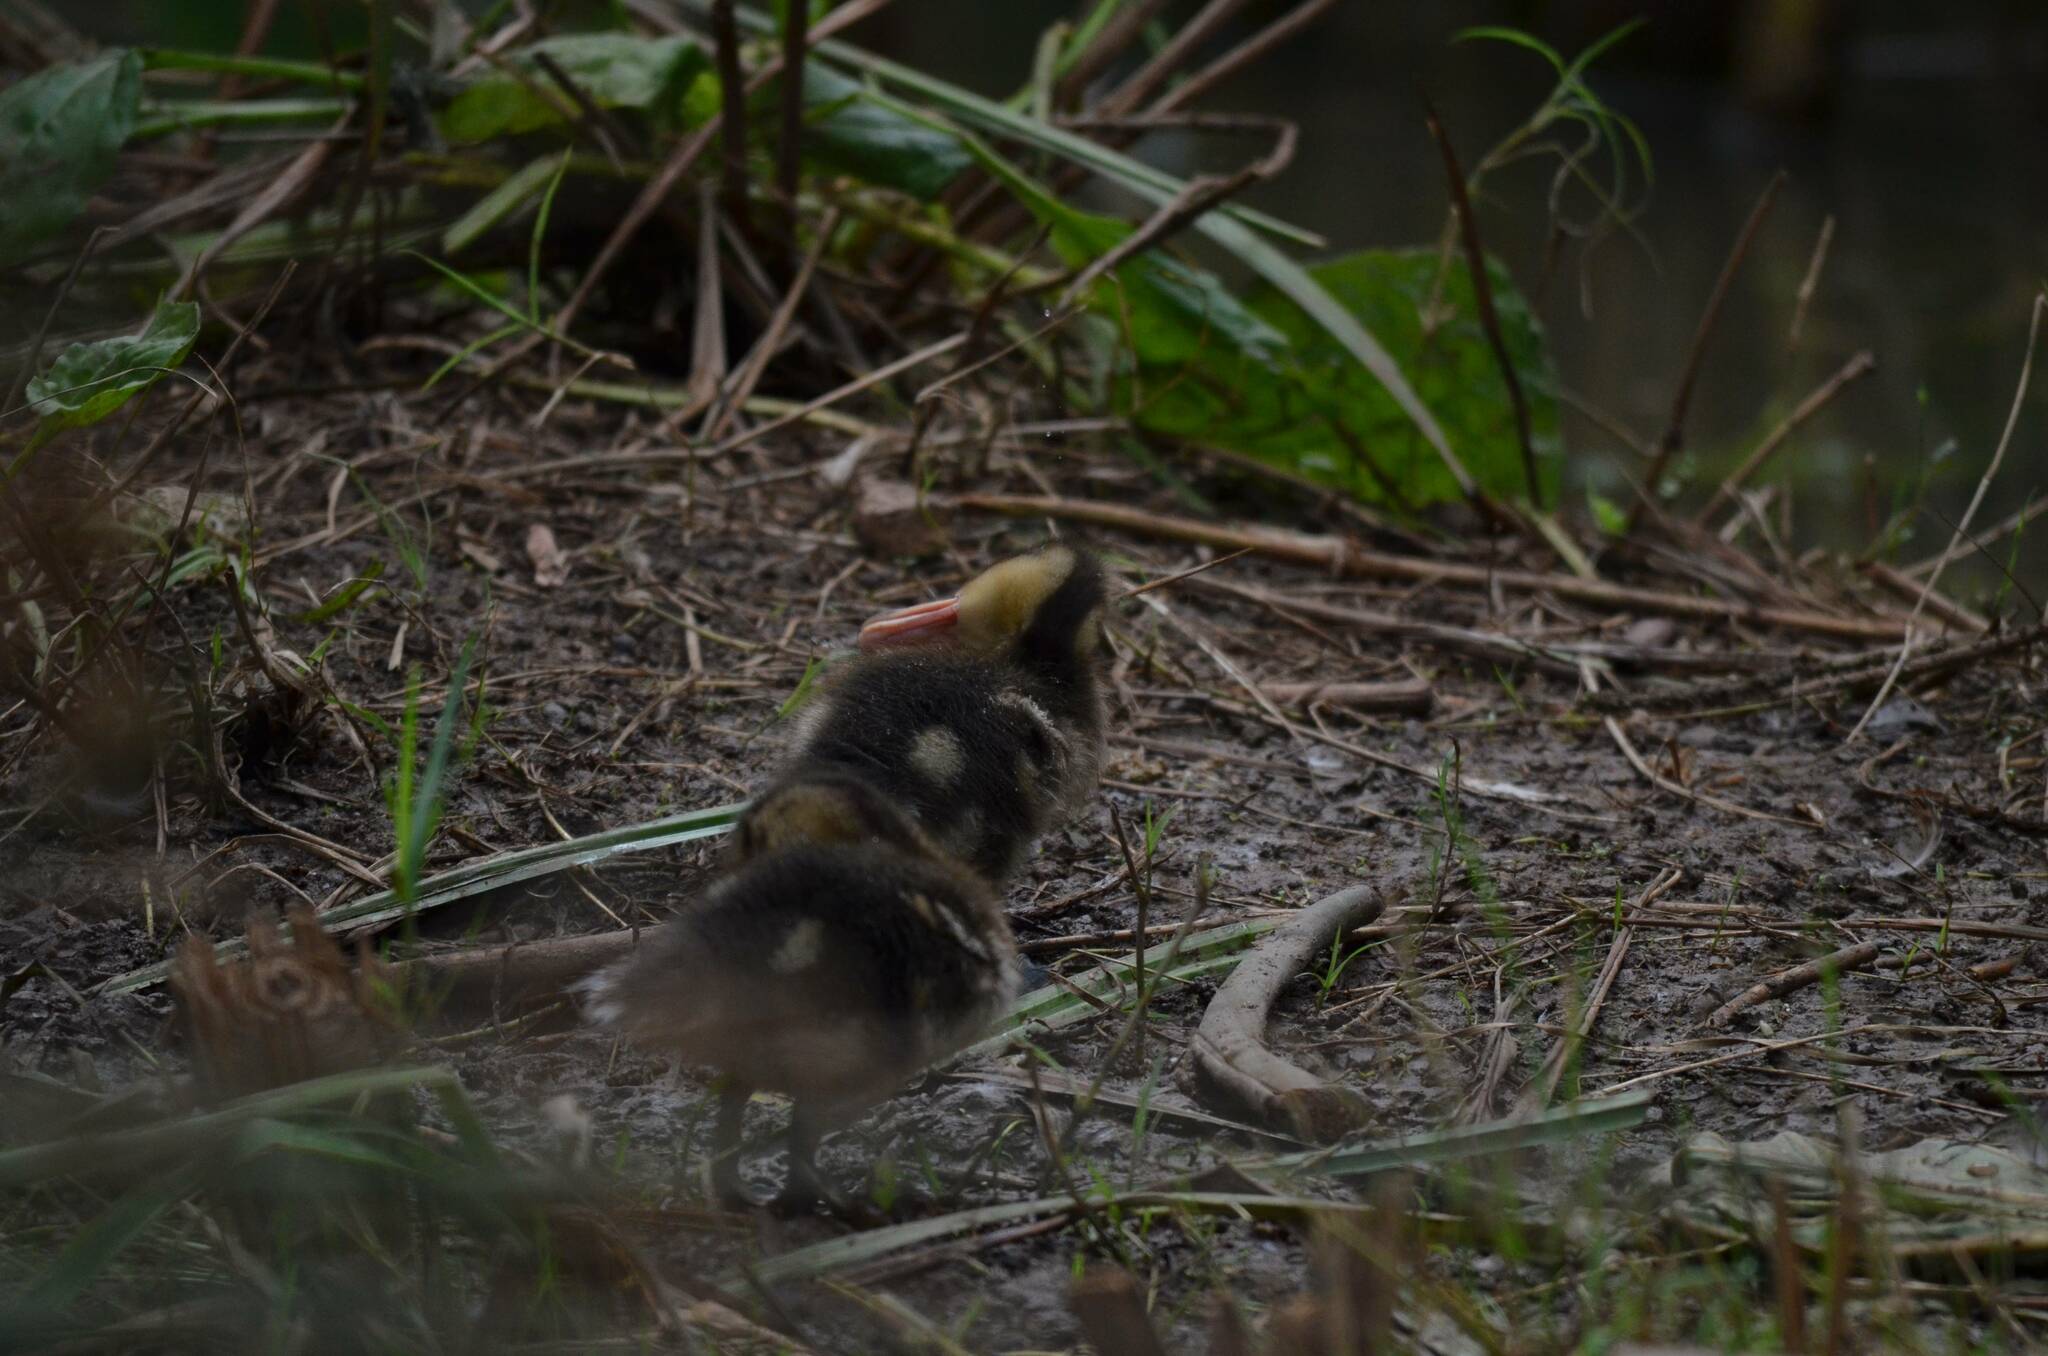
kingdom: Animalia
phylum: Chordata
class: Aves
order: Anseriformes
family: Anatidae
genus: Anas
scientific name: Anas platyrhynchos
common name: Mallard
